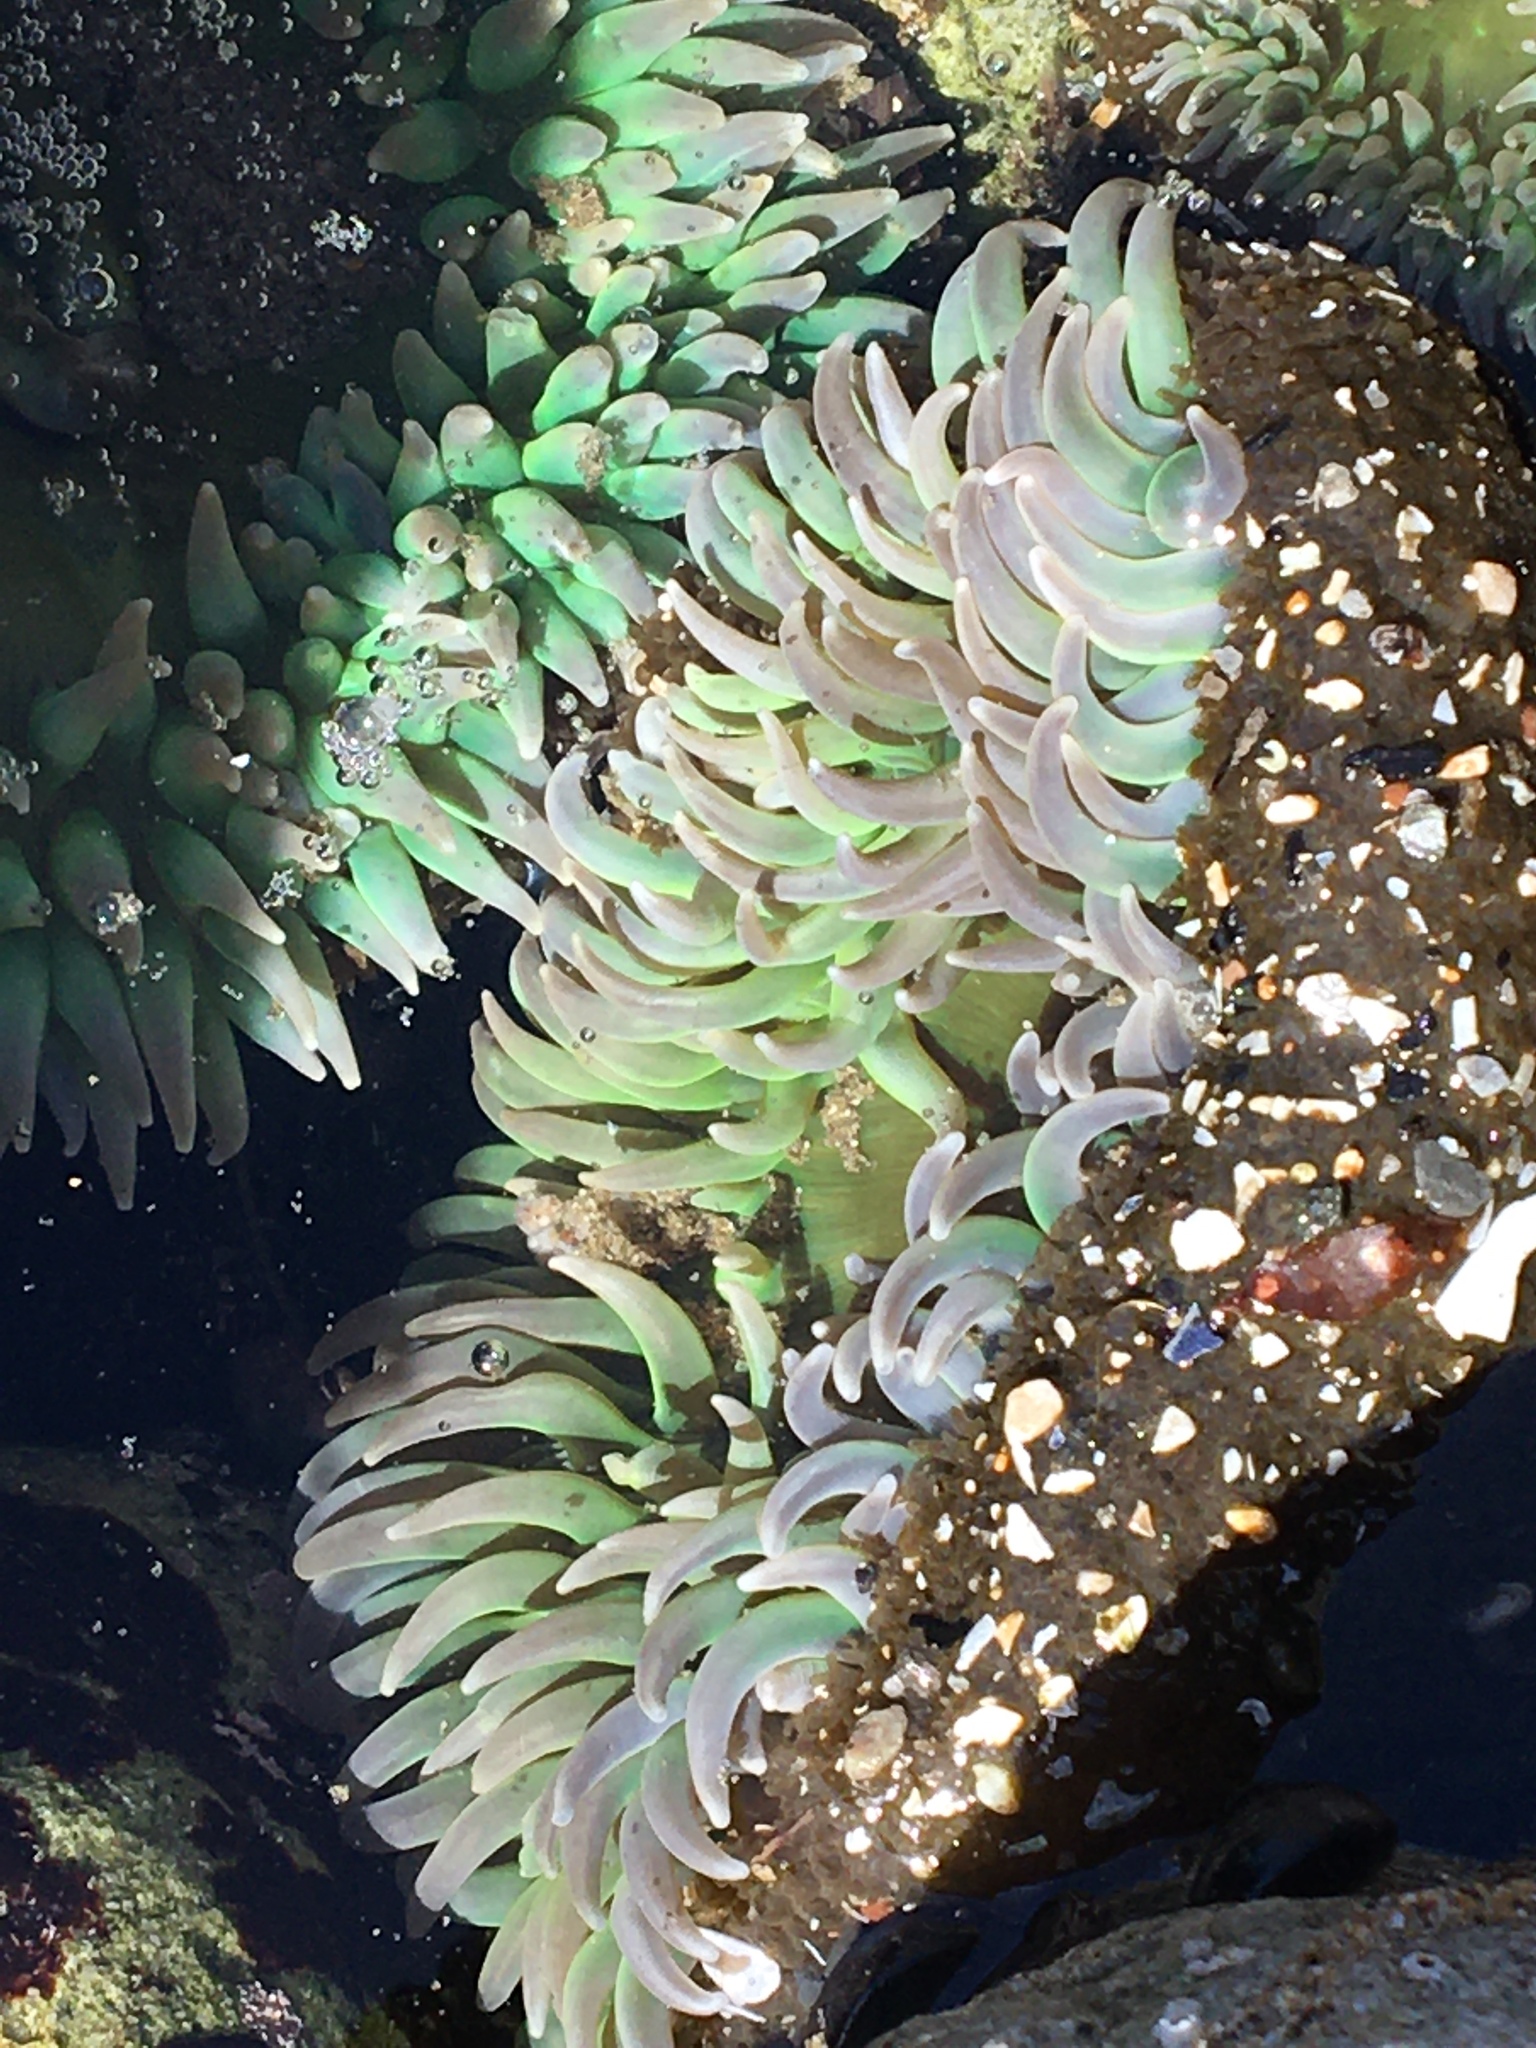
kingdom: Animalia
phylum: Cnidaria
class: Anthozoa
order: Actiniaria
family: Actiniidae
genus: Anthopleura
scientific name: Anthopleura xanthogrammica
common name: Giant green anemone
